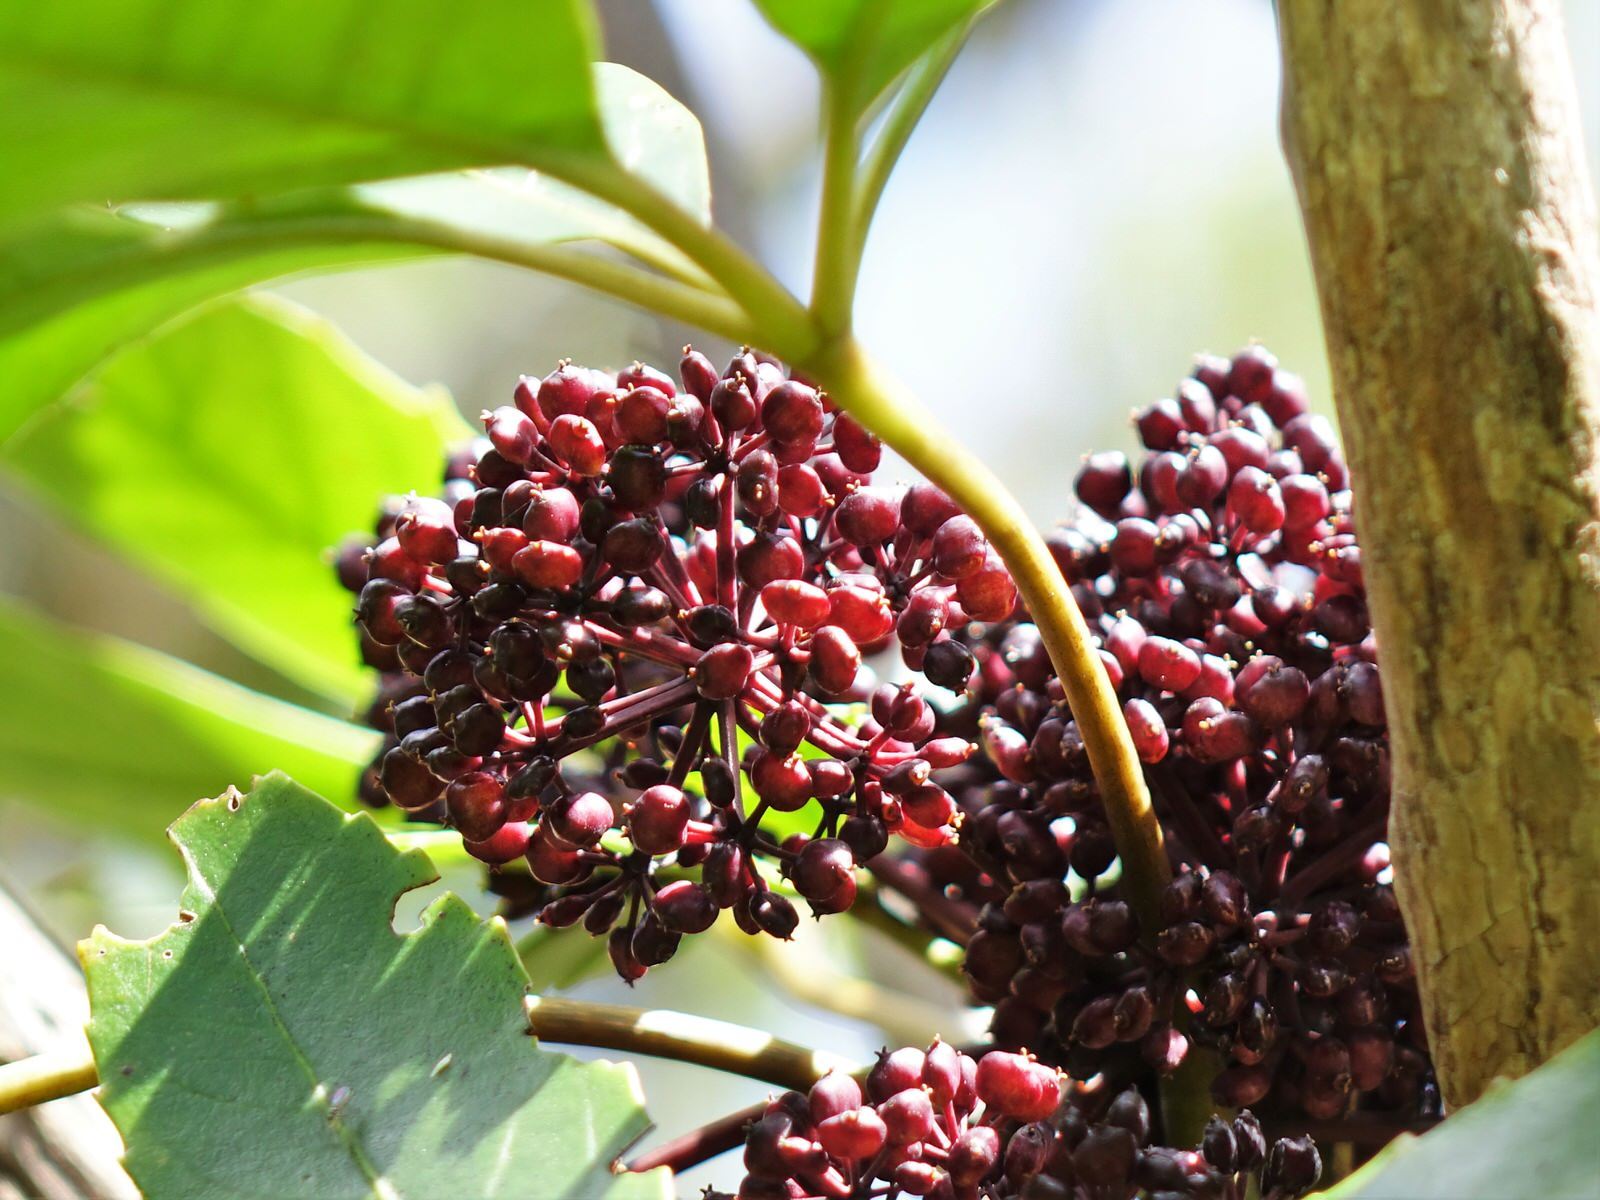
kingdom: Plantae
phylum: Tracheophyta
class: Magnoliopsida
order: Apiales
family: Araliaceae
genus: Neopanax
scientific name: Neopanax arboreus
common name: Five-fingers
